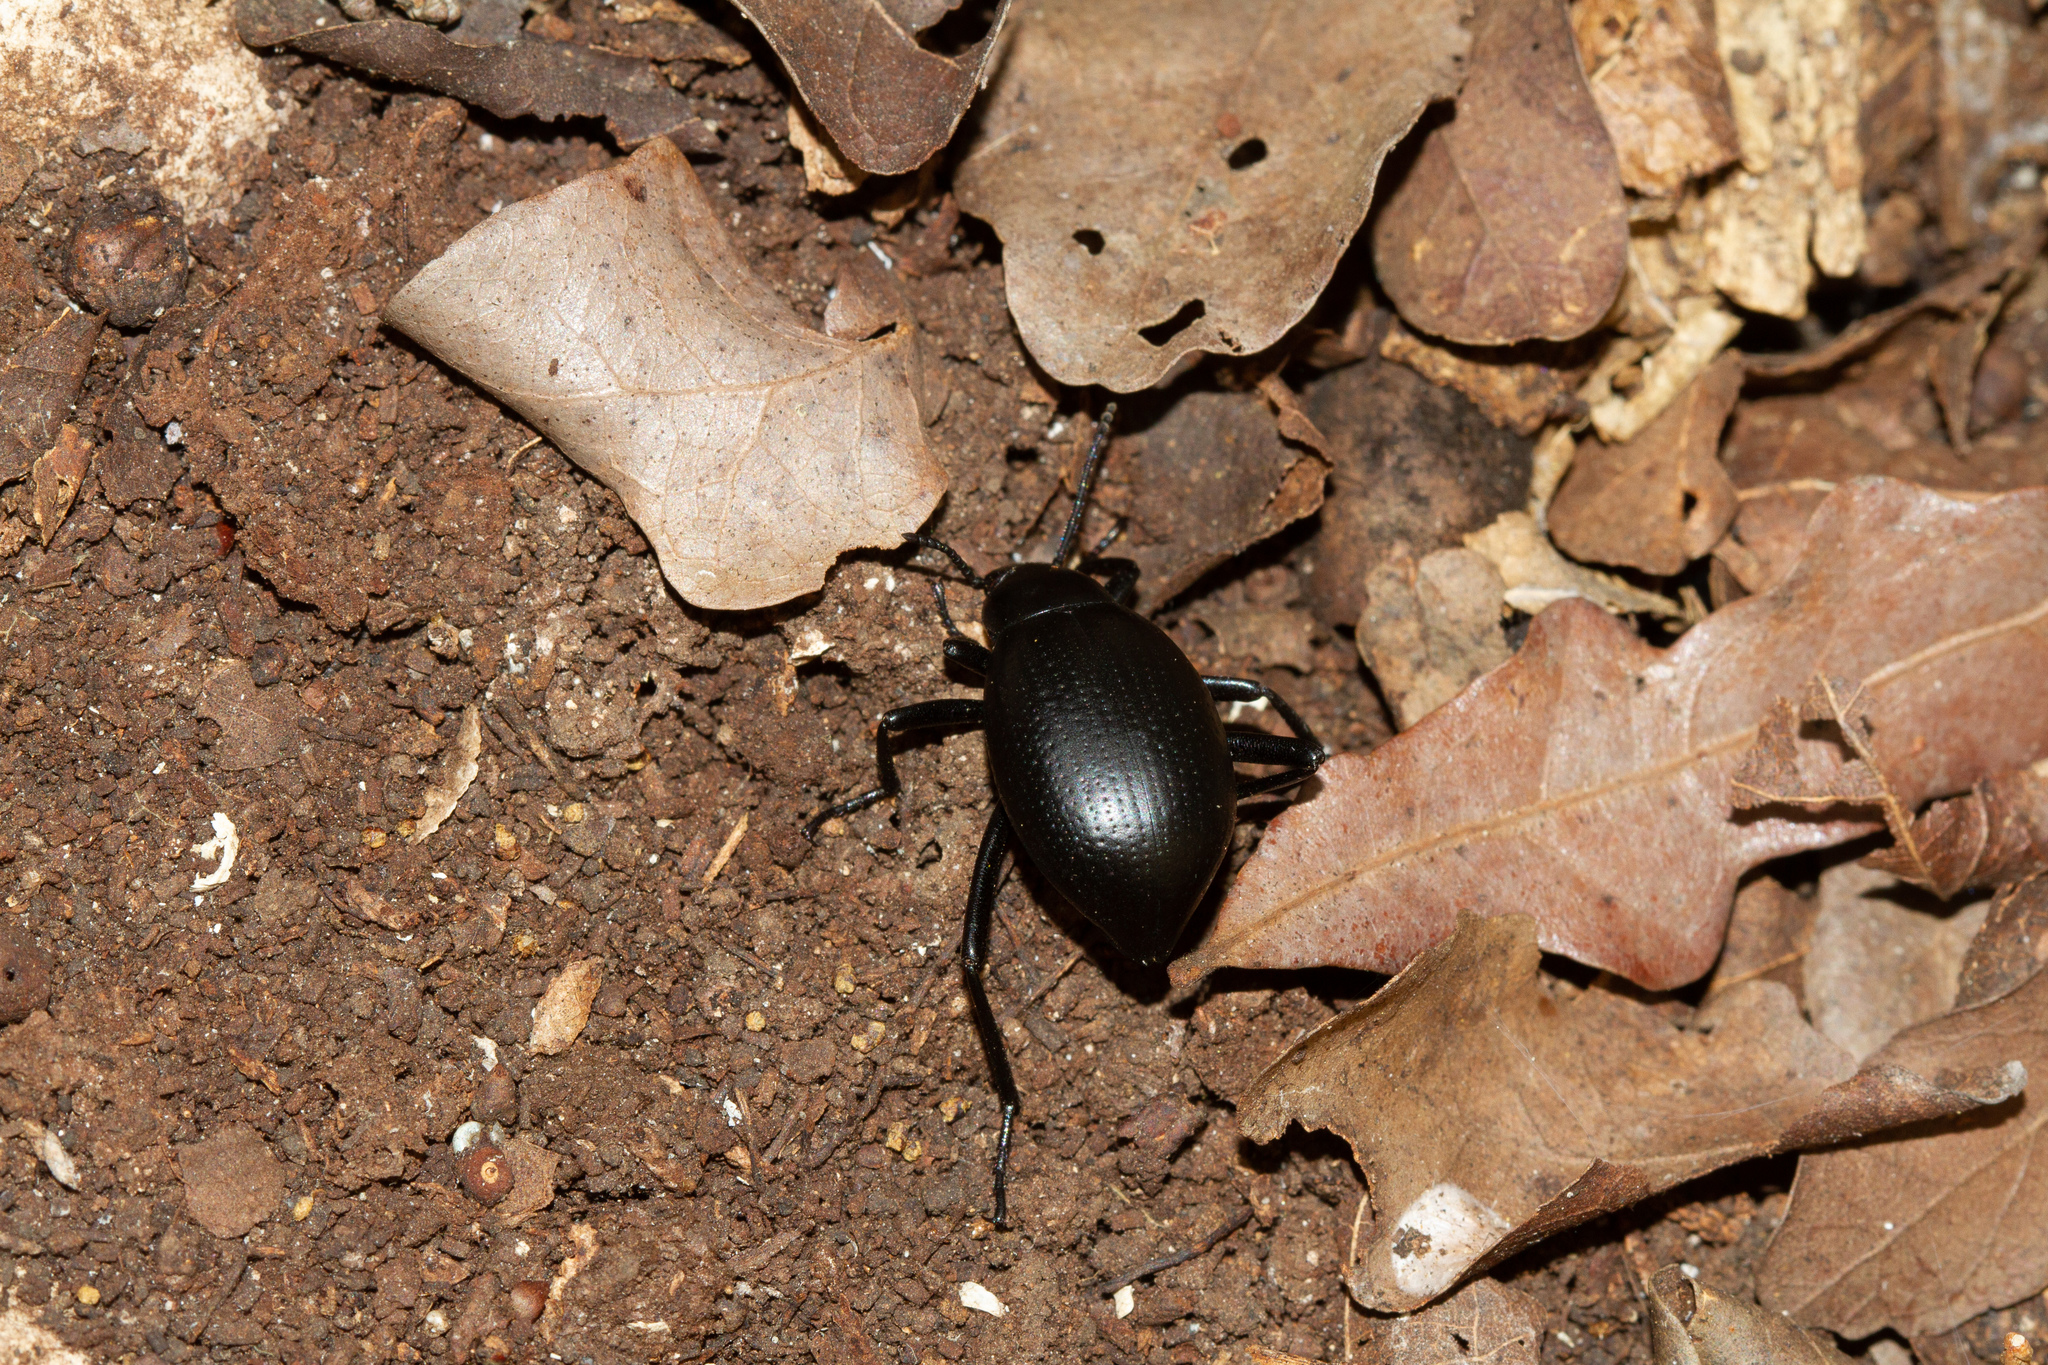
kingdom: Animalia
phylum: Arthropoda
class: Insecta
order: Coleoptera
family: Tenebrionidae
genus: Eleodes
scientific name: Eleodes goryi
